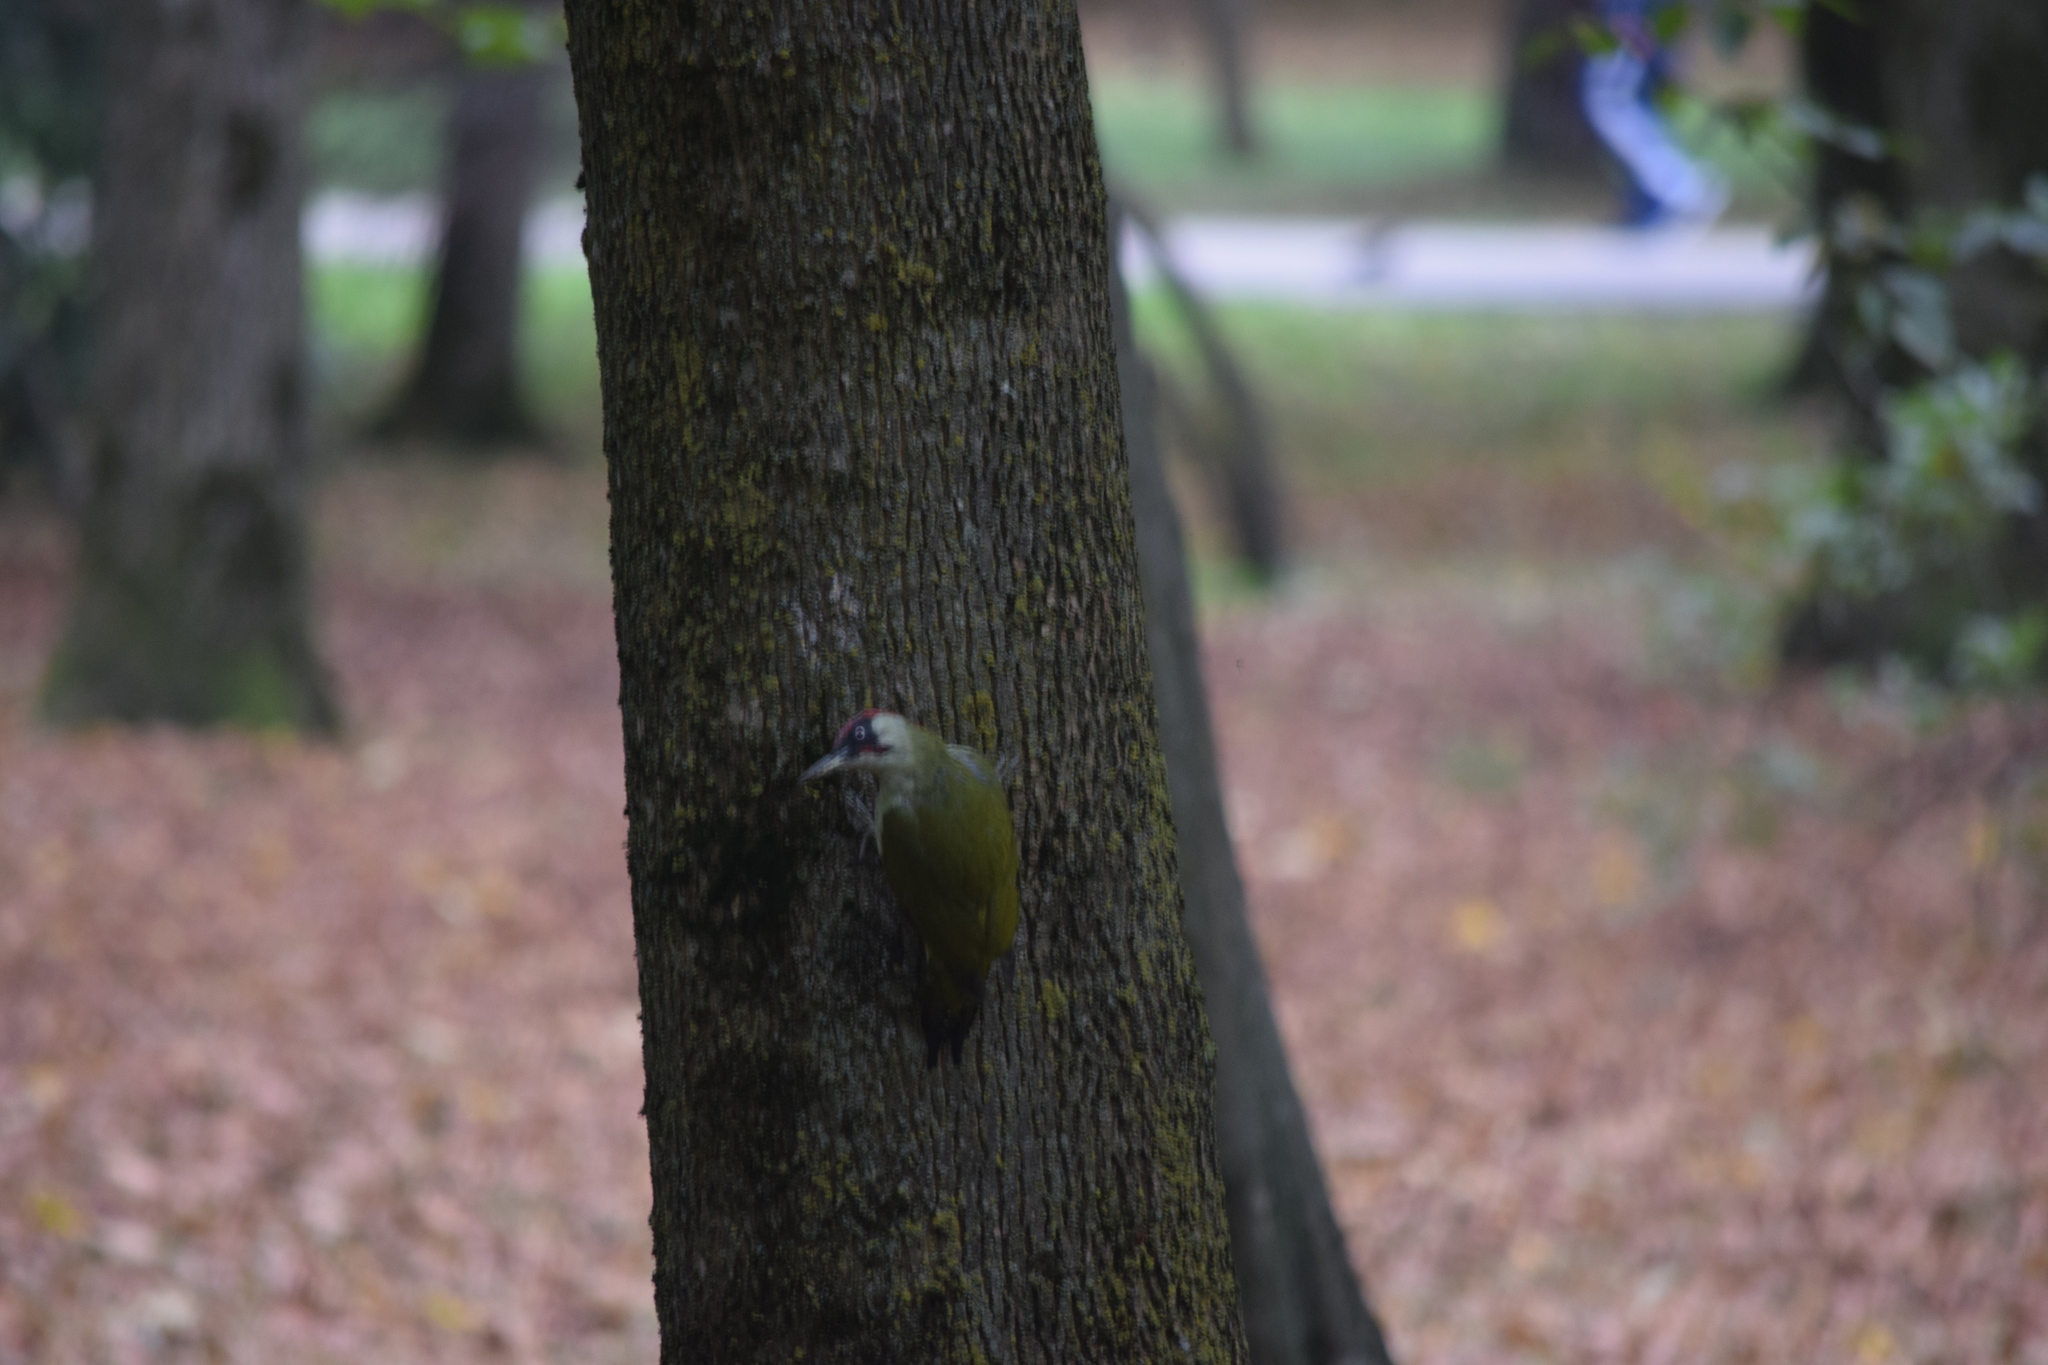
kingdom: Animalia
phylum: Chordata
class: Aves
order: Piciformes
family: Picidae
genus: Picus
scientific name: Picus viridis
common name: European green woodpecker
